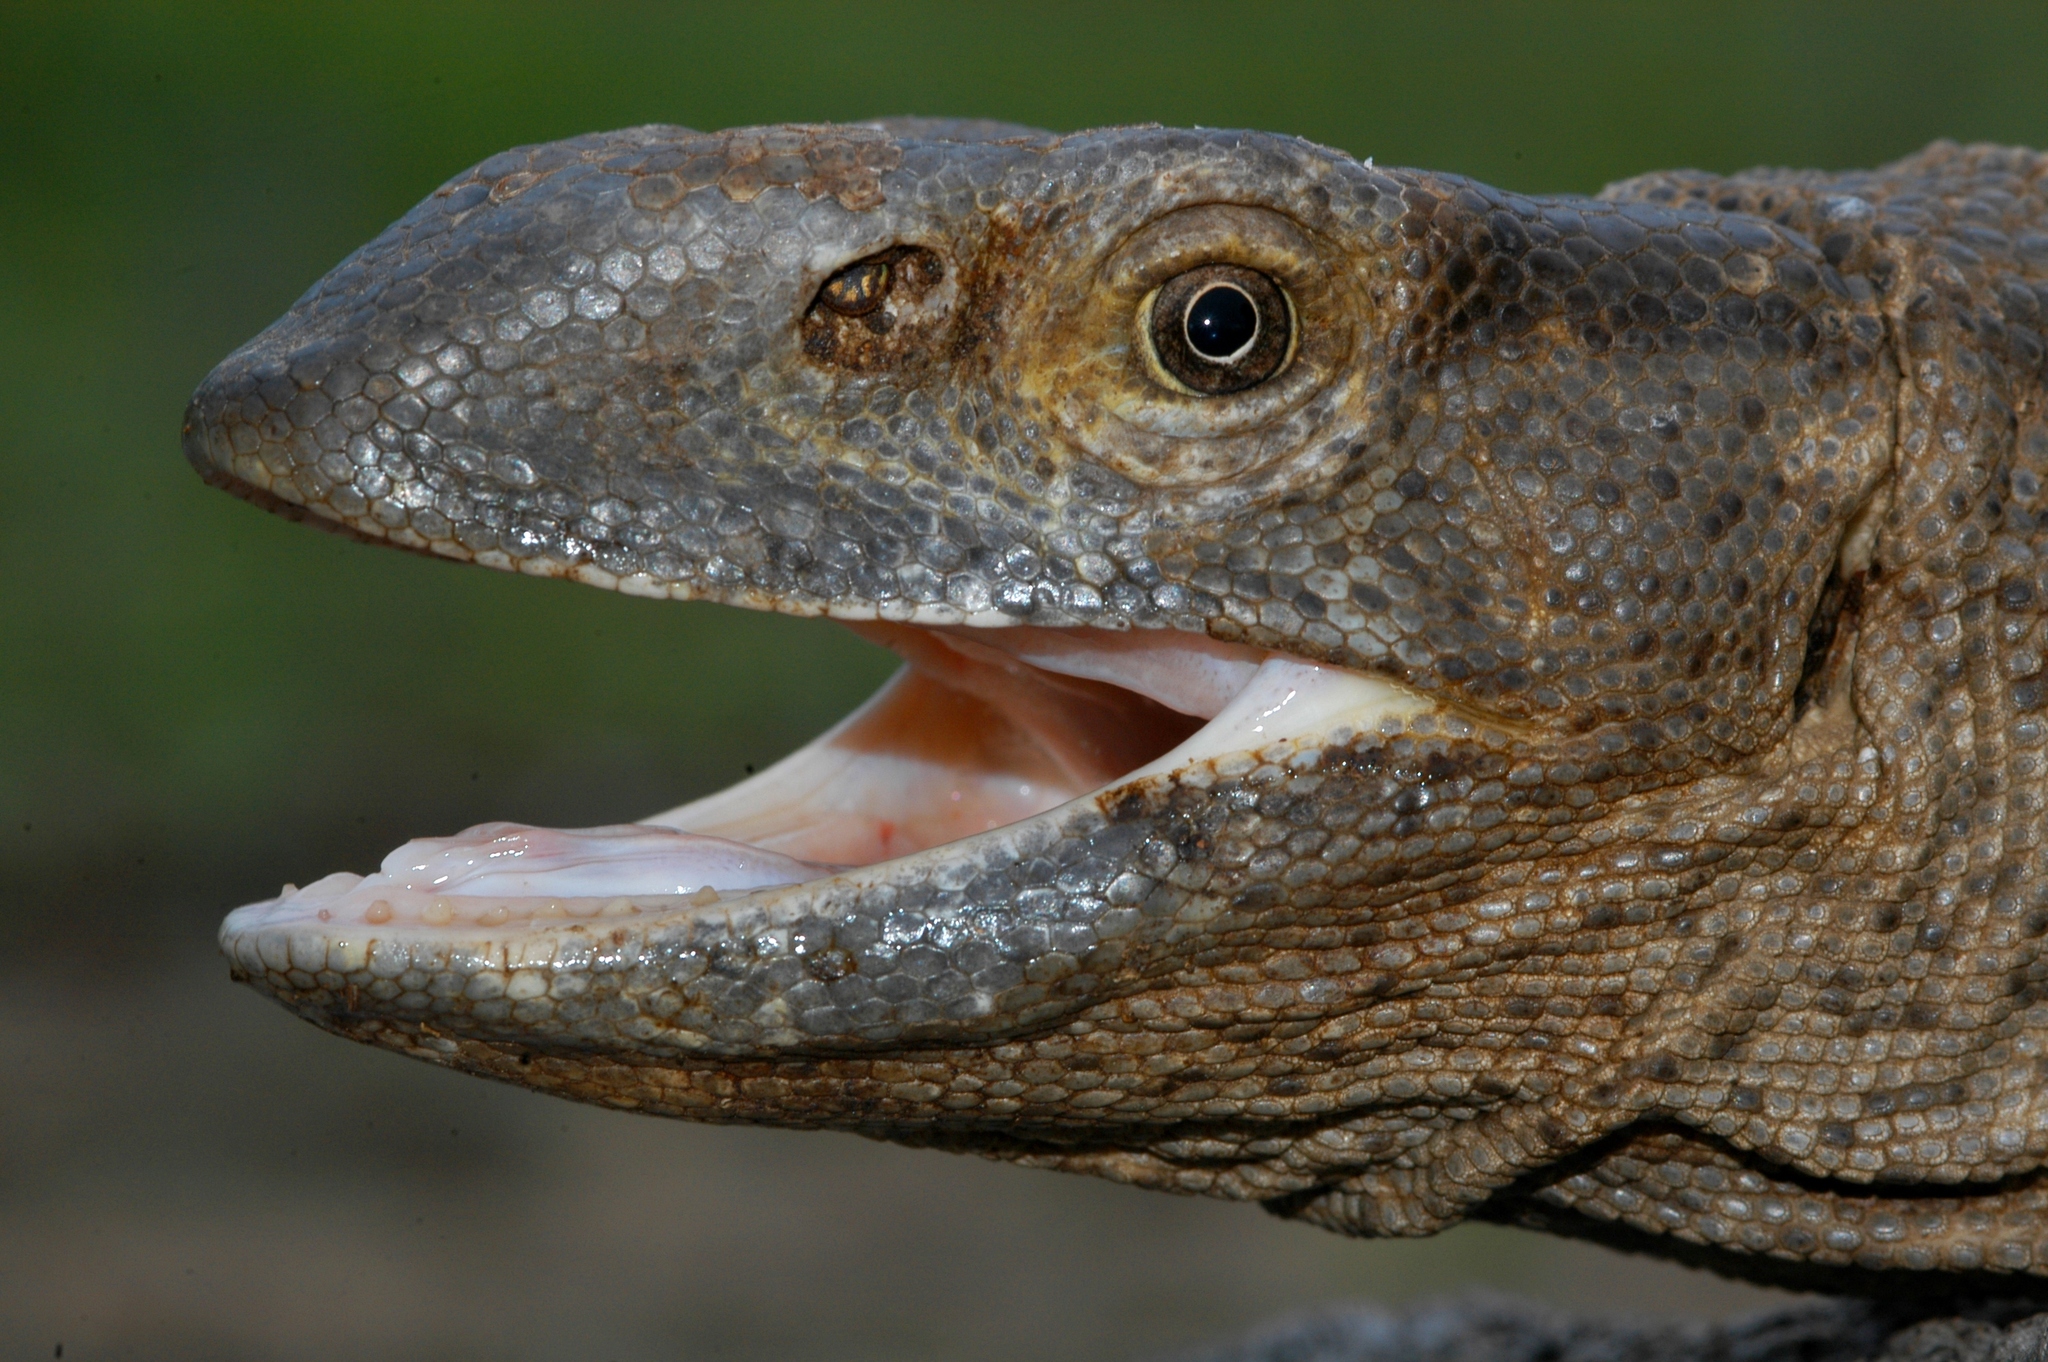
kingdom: Animalia
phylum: Chordata
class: Squamata
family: Varanidae
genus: Varanus
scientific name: Varanus albigularis
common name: White-throated monitor
